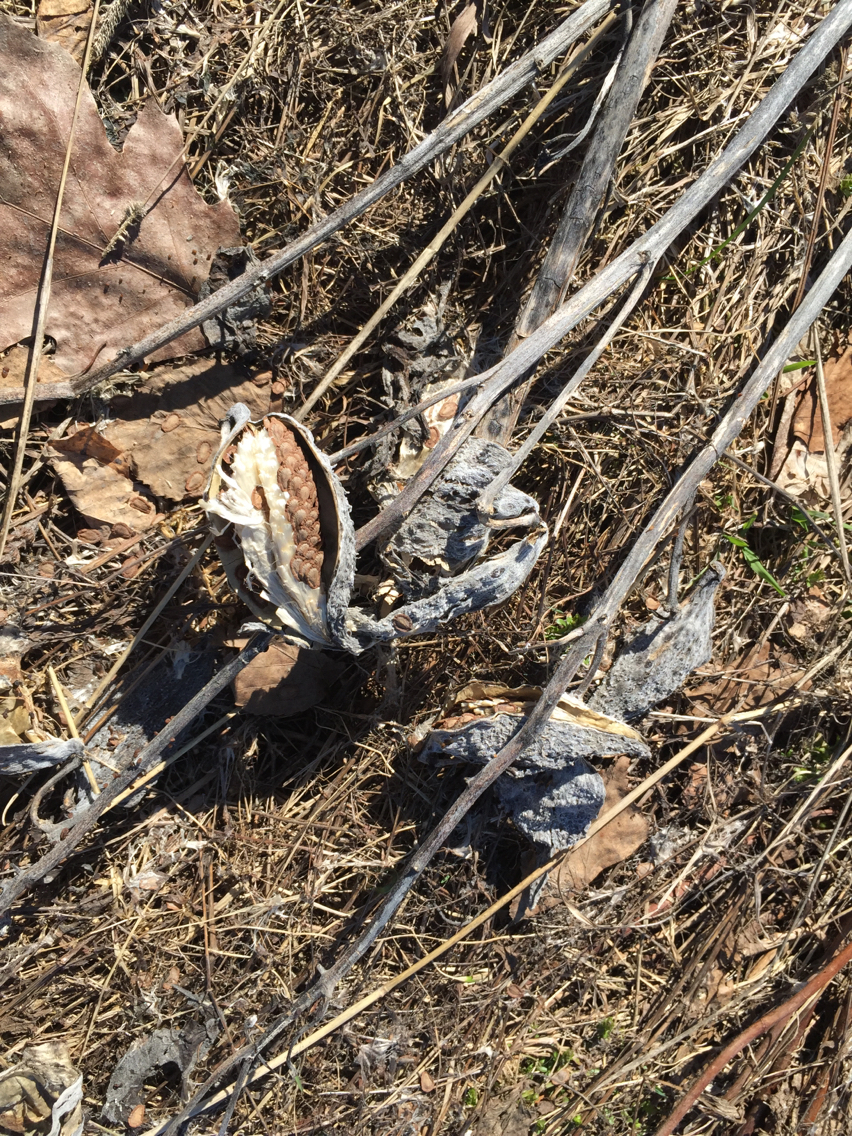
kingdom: Plantae
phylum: Tracheophyta
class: Magnoliopsida
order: Gentianales
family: Apocynaceae
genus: Asclepias
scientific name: Asclepias syriaca
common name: Common milkweed
